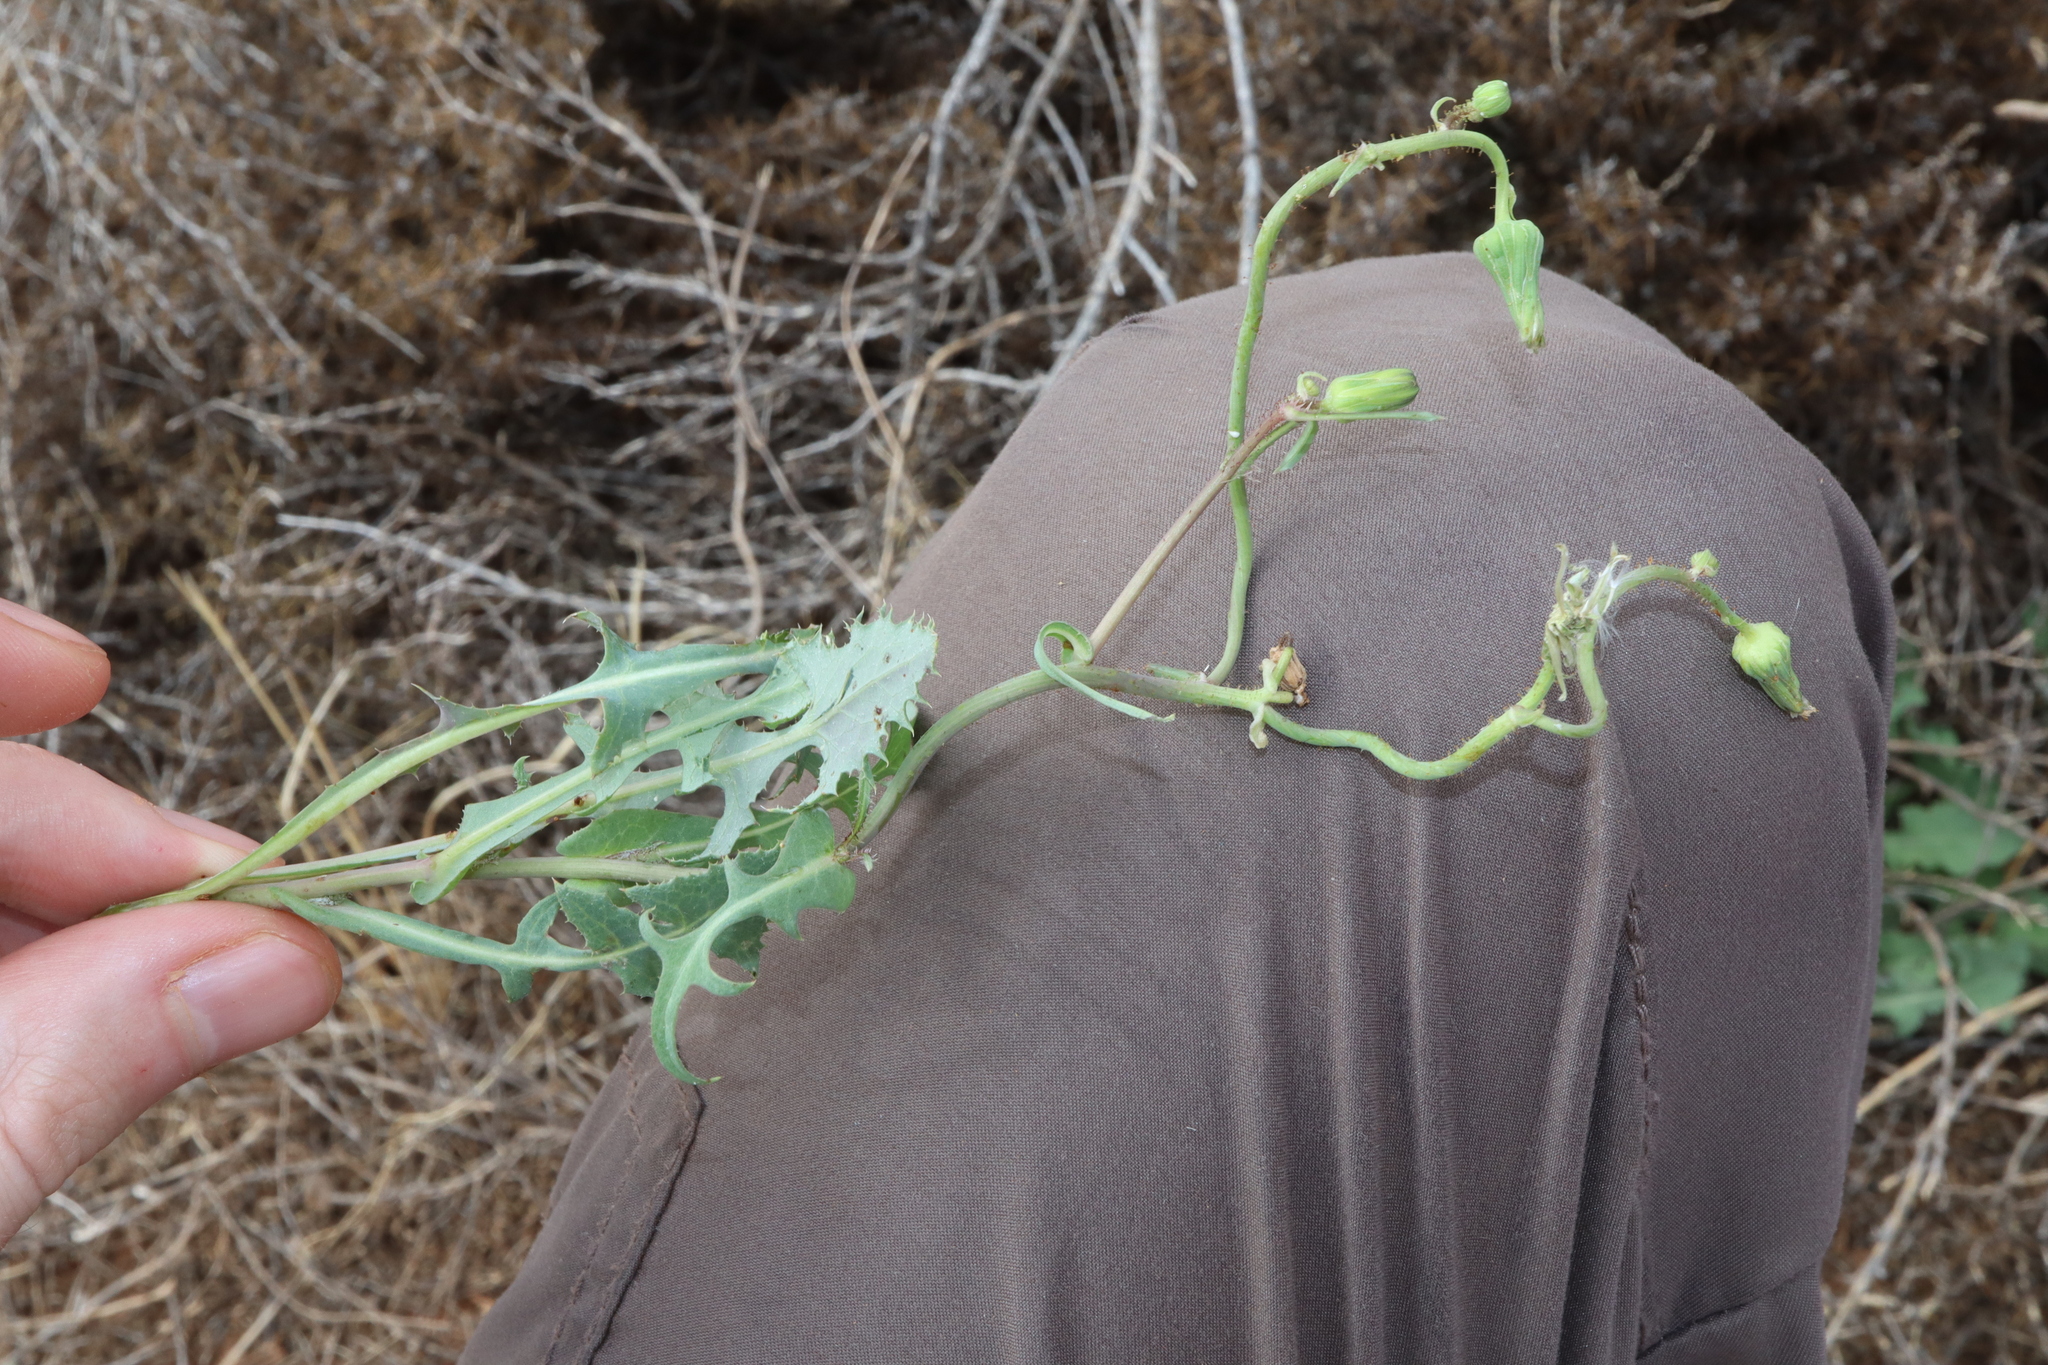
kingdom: Plantae
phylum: Tracheophyta
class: Magnoliopsida
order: Asterales
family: Asteraceae
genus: Sonchus
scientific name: Sonchus oleraceus
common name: Common sowthistle
